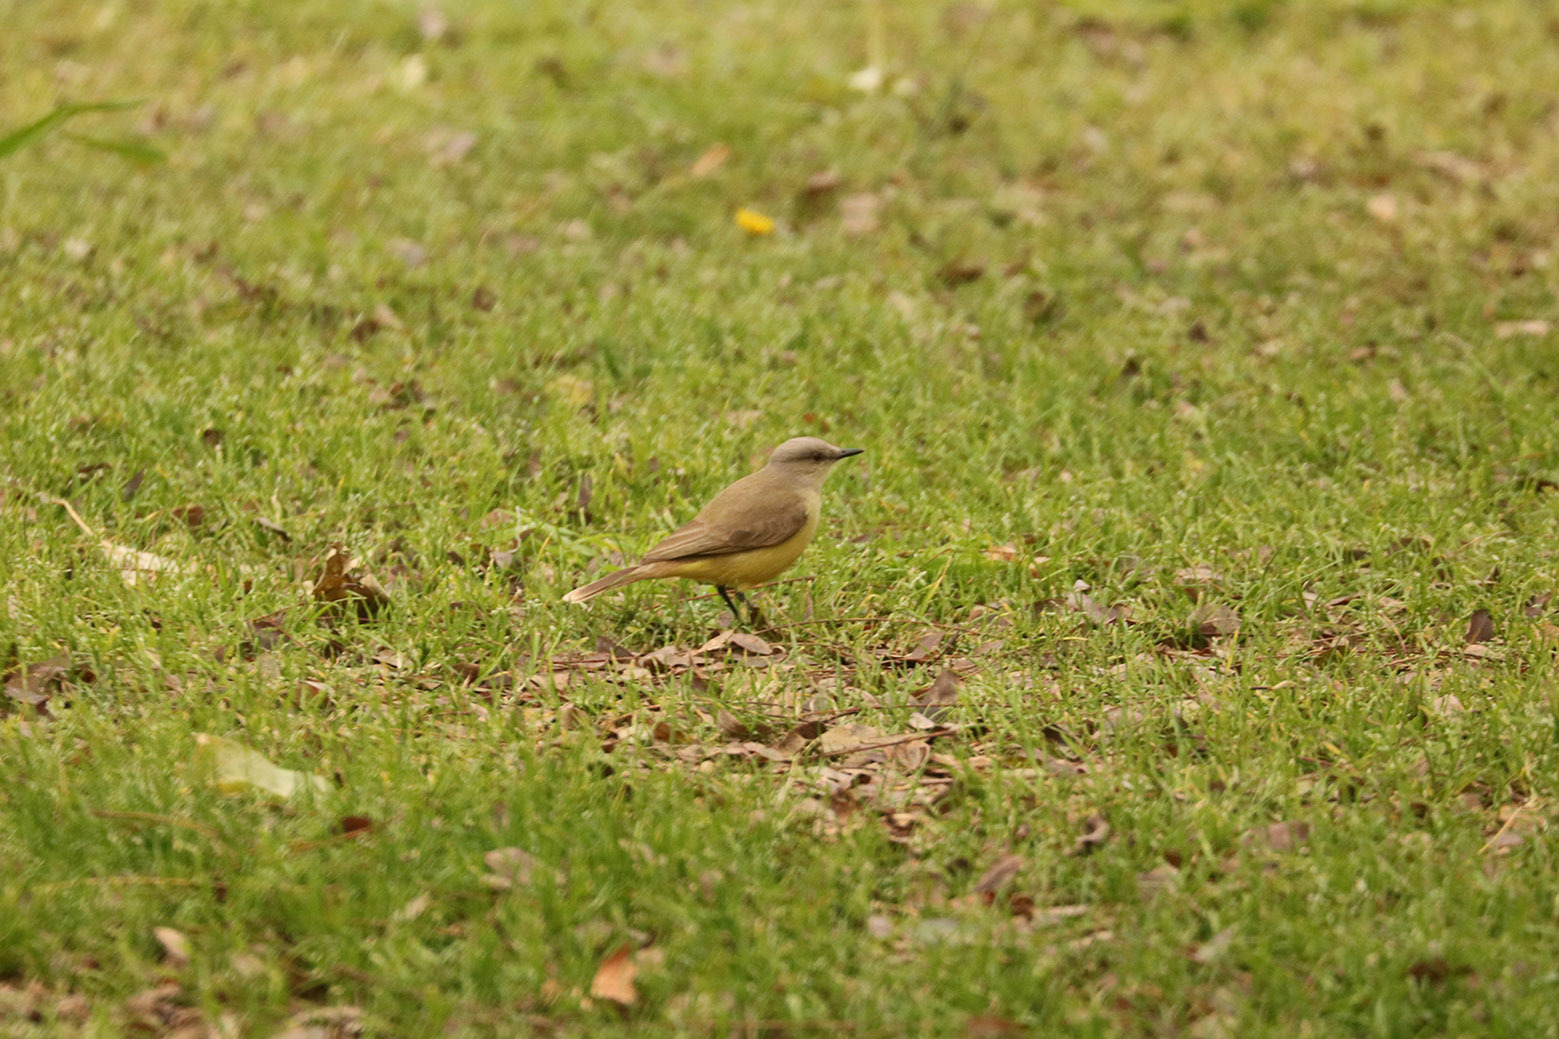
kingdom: Animalia
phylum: Chordata
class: Aves
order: Passeriformes
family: Tyrannidae
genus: Machetornis
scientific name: Machetornis rixosa
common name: Cattle tyrant
